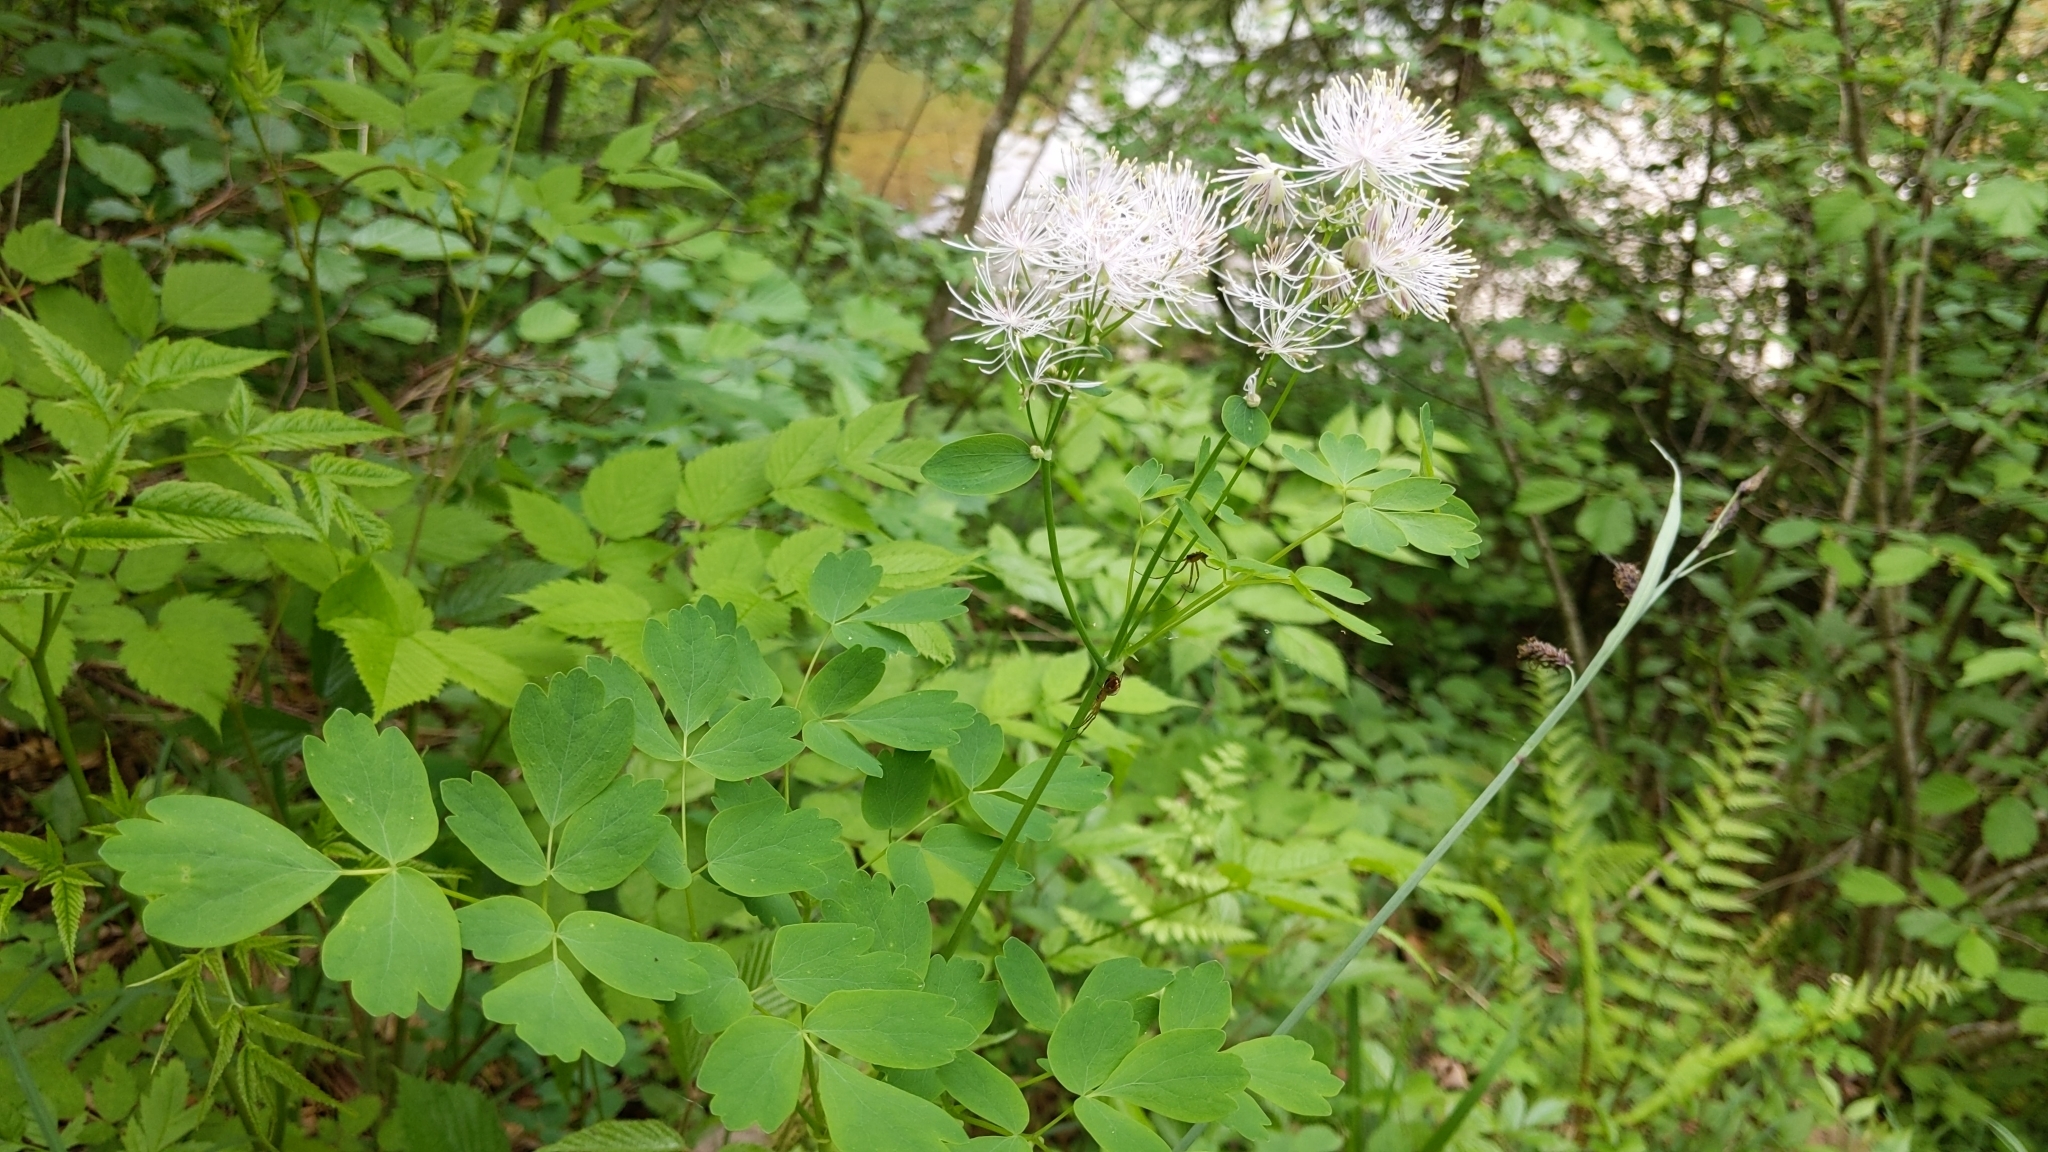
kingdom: Plantae
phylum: Tracheophyta
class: Magnoliopsida
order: Ranunculales
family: Ranunculaceae
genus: Thalictrum
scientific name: Thalictrum aquilegiifolium
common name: French meadow-rue
